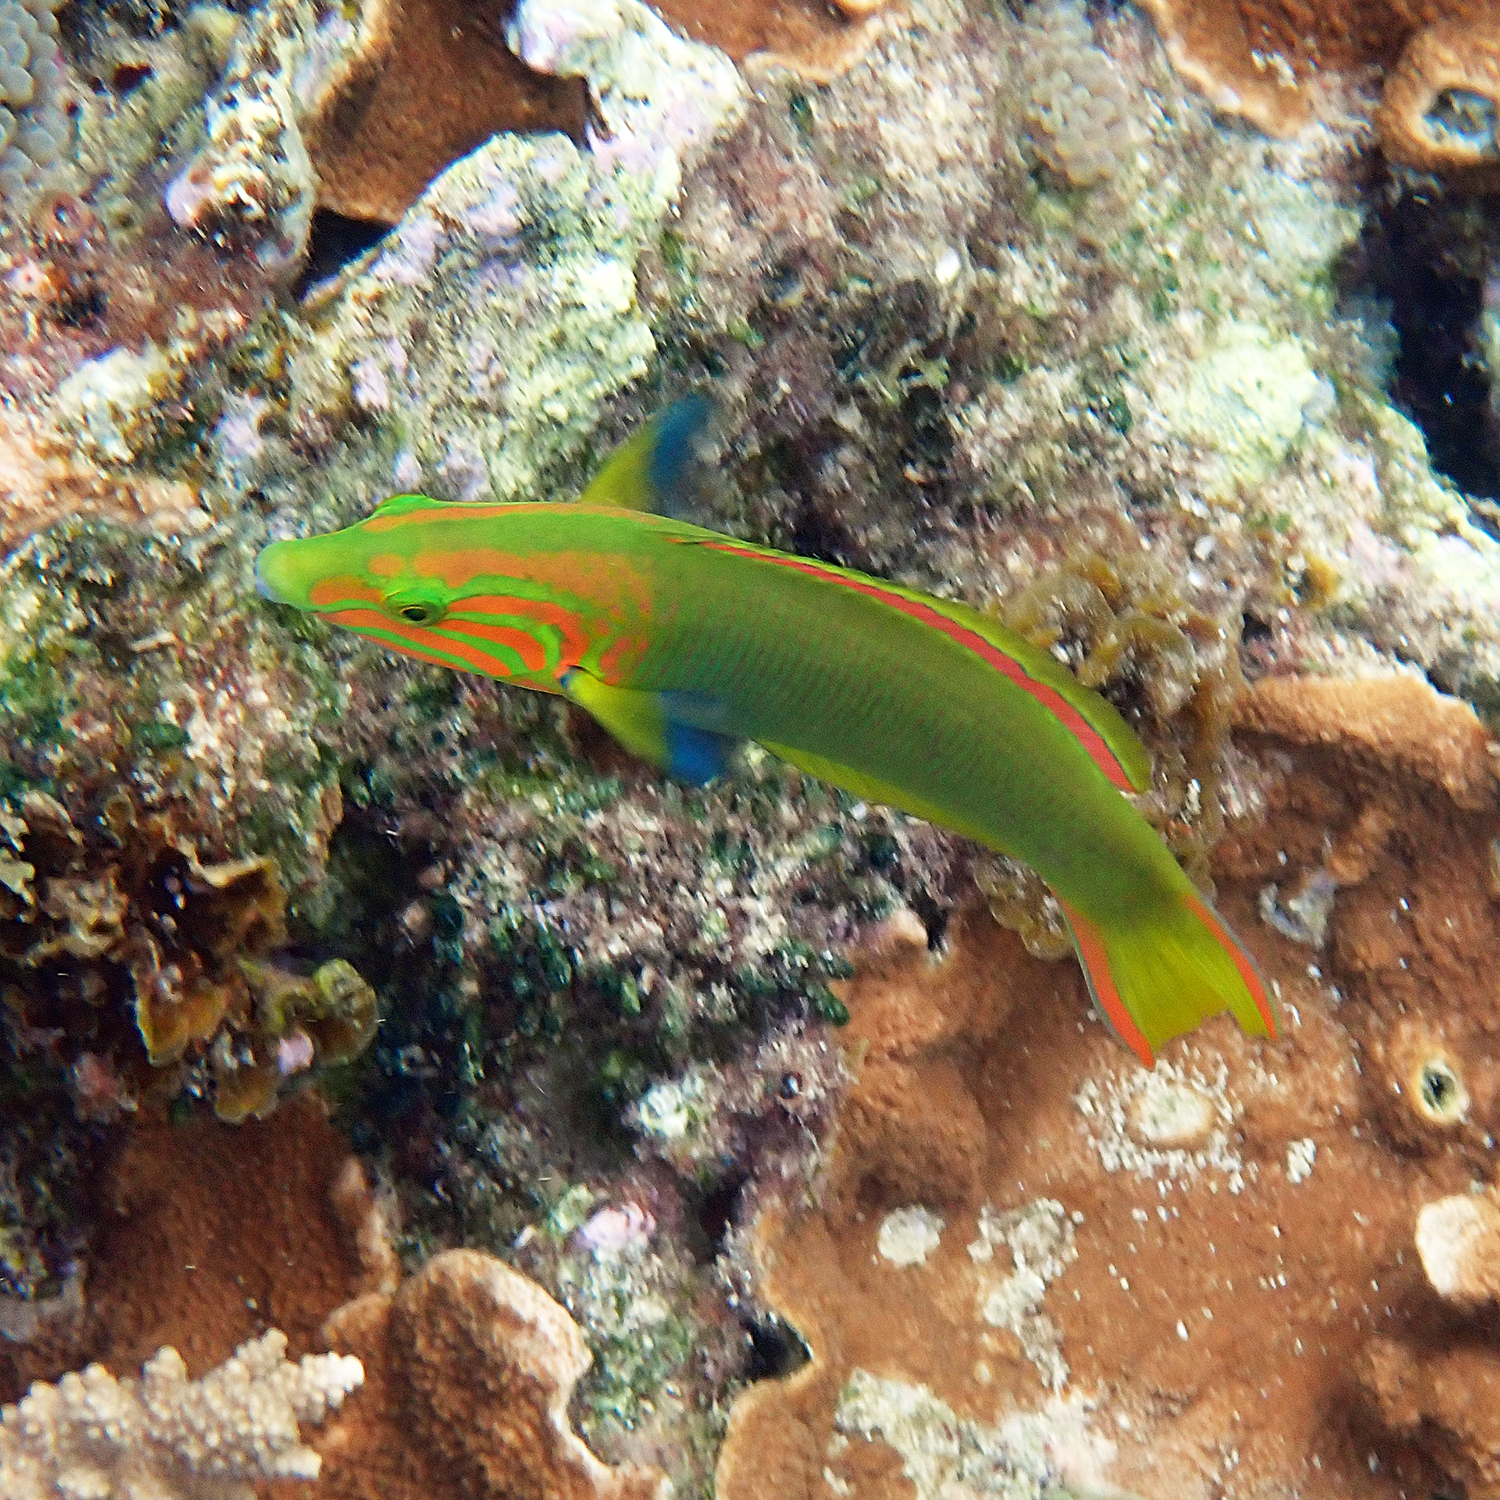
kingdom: Animalia
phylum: Chordata
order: Perciformes
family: Labridae
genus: Thalassoma
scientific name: Thalassoma lutescens
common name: Green moon wrasse
